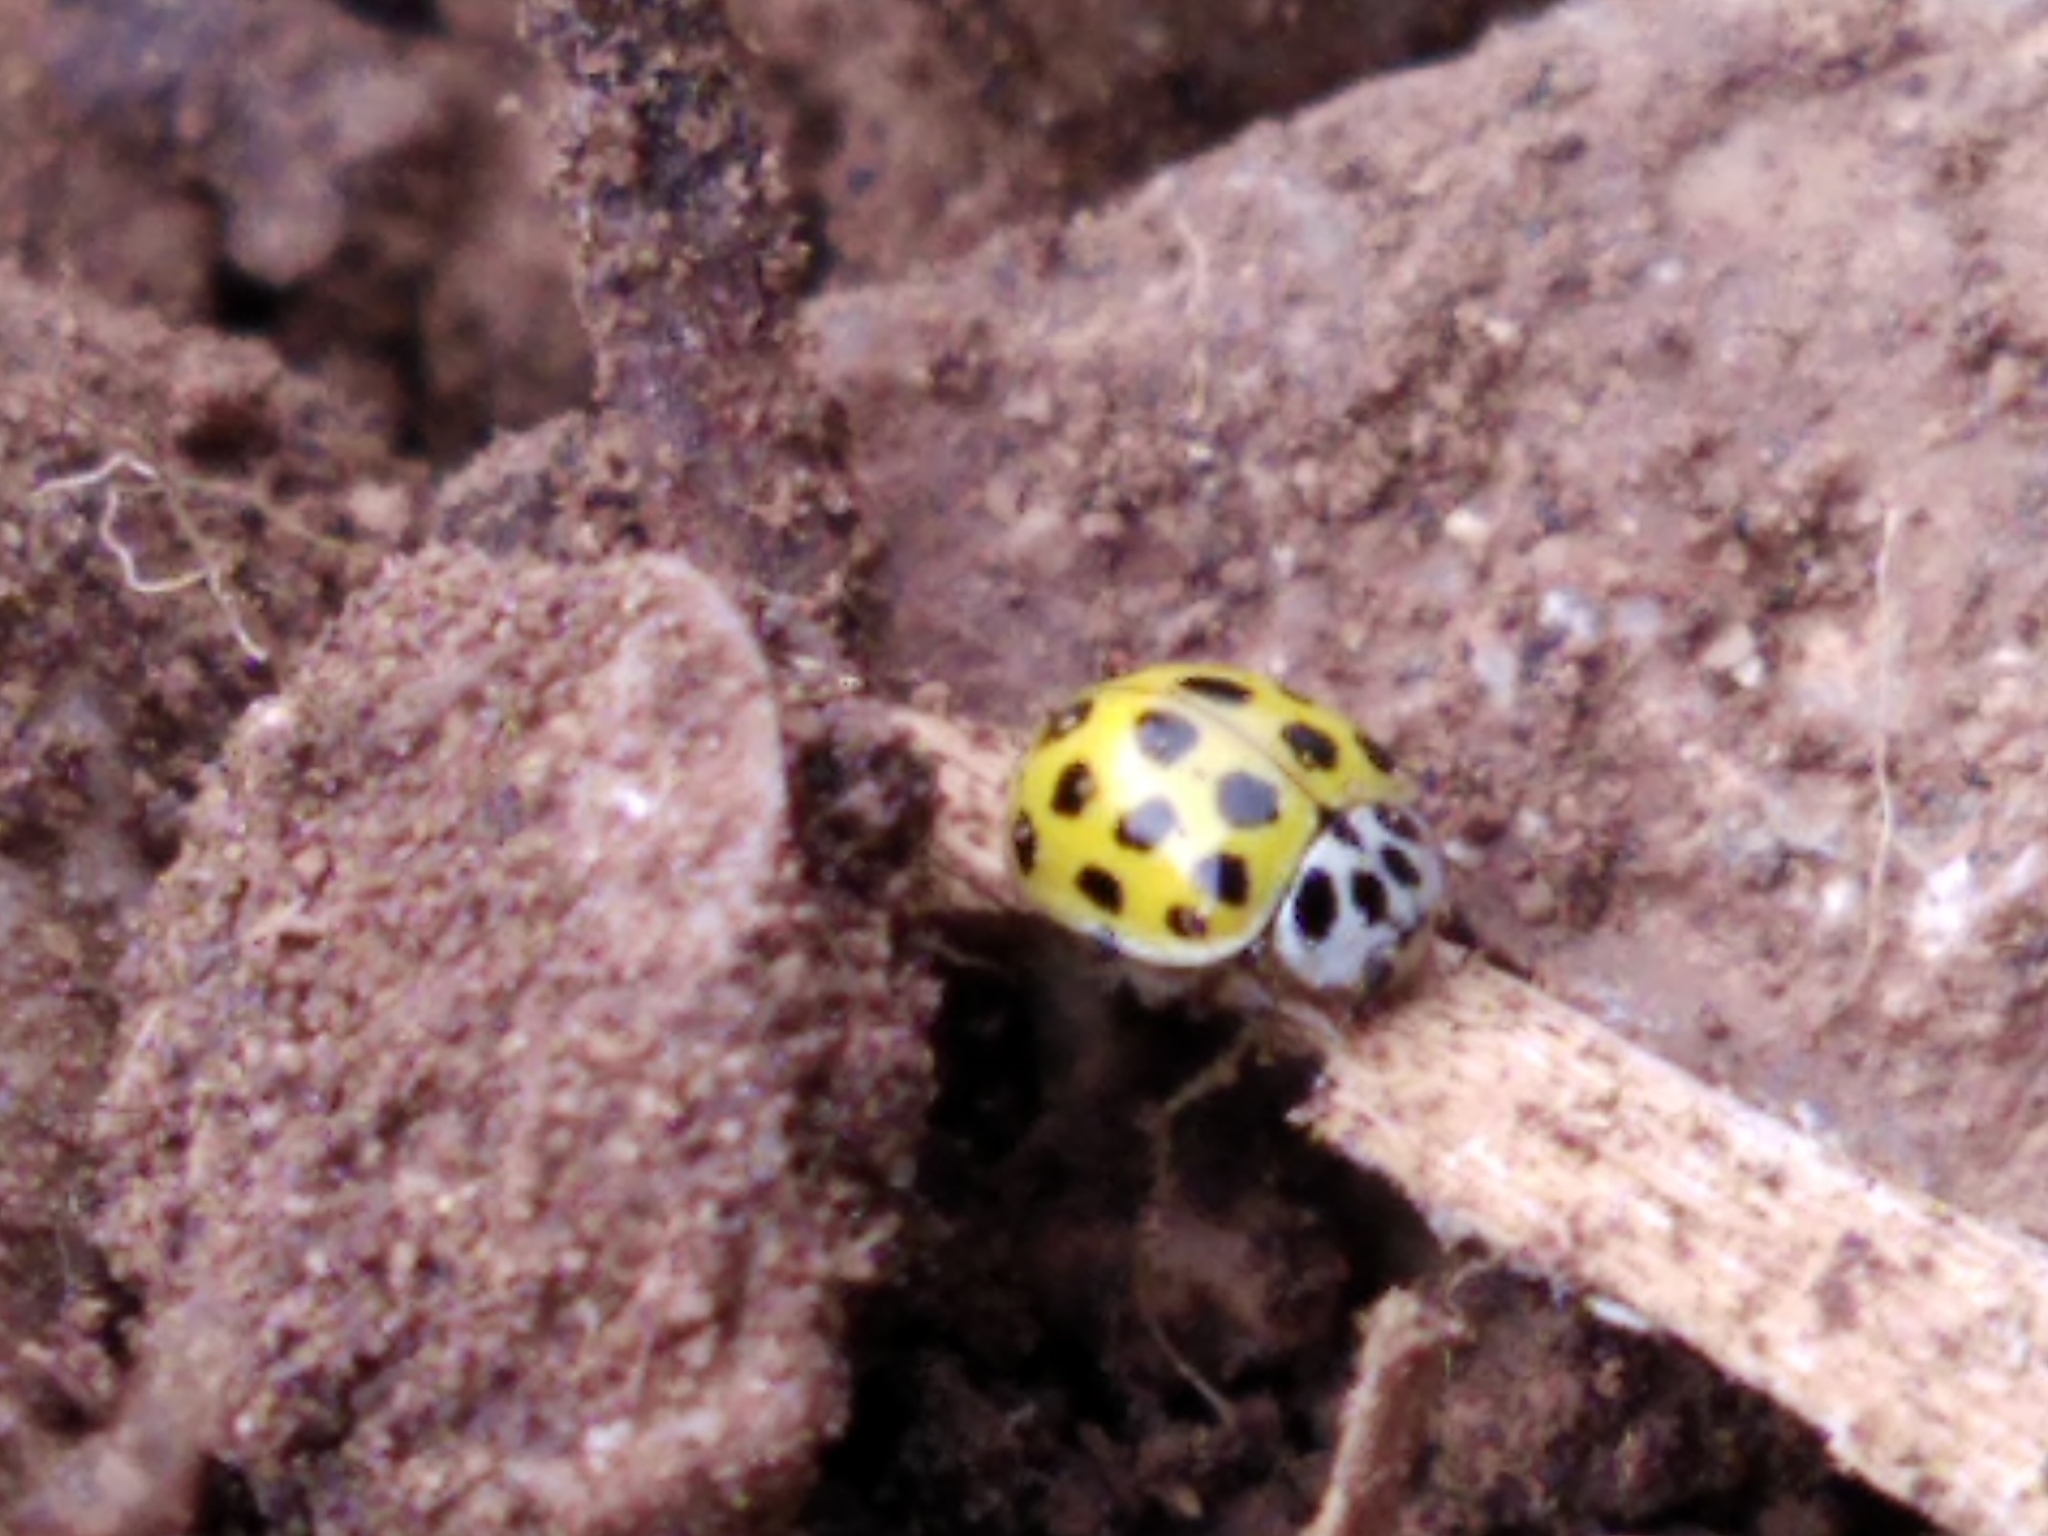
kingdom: Animalia
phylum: Arthropoda
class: Insecta
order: Coleoptera
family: Coccinellidae
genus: Psyllobora
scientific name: Psyllobora vigintiduopunctata
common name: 22-spot ladybird
